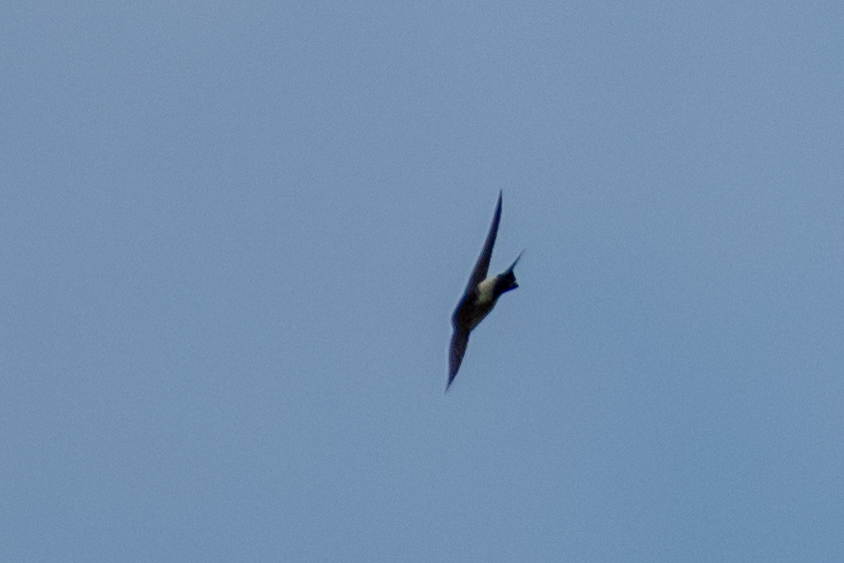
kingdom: Animalia
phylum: Chordata
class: Aves
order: Passeriformes
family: Hirundinidae
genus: Delichon
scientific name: Delichon urbicum
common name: Common house martin
